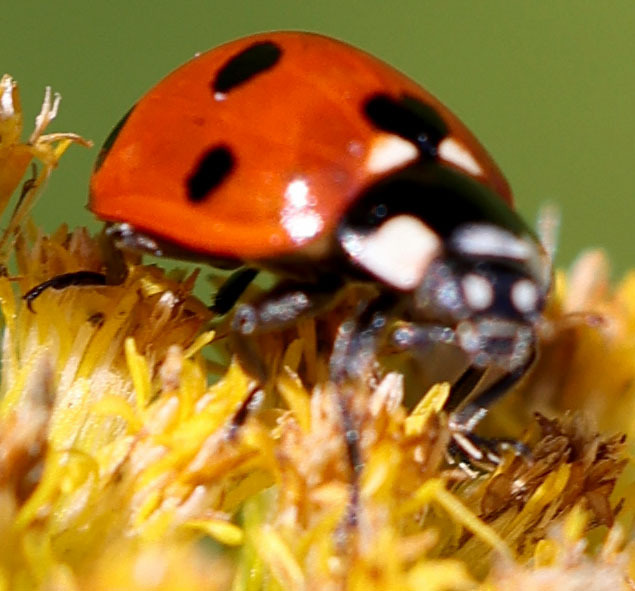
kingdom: Animalia
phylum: Arthropoda
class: Insecta
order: Coleoptera
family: Coccinellidae
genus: Coccinella
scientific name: Coccinella septempunctata
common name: Sevenspotted lady beetle
